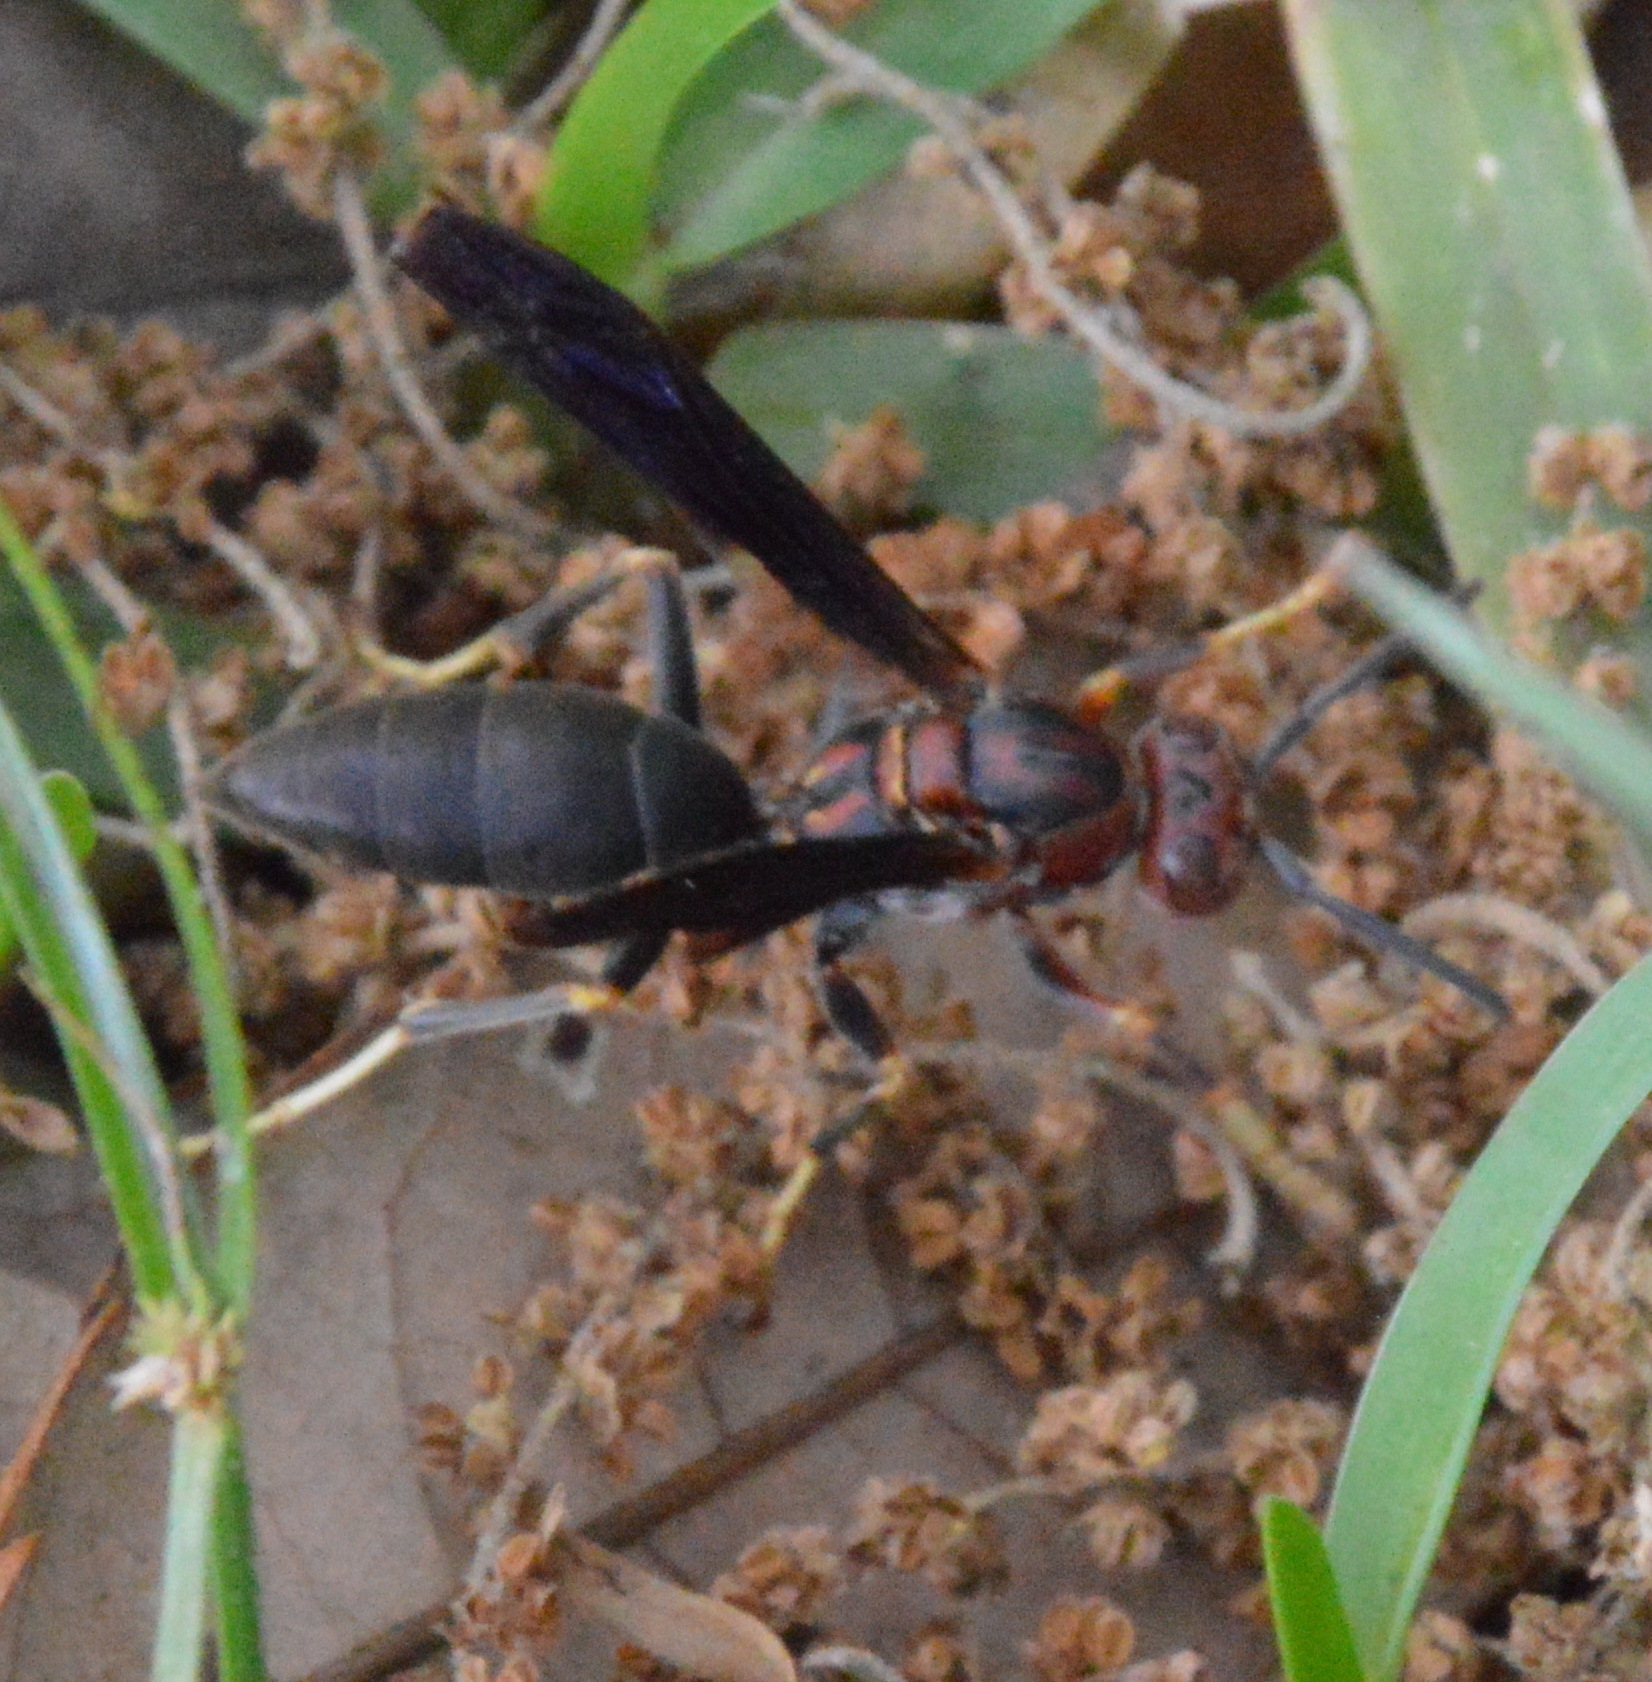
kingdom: Animalia
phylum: Arthropoda
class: Insecta
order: Hymenoptera
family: Eumenidae
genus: Polistes
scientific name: Polistes metricus
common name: Metric paper wasp
